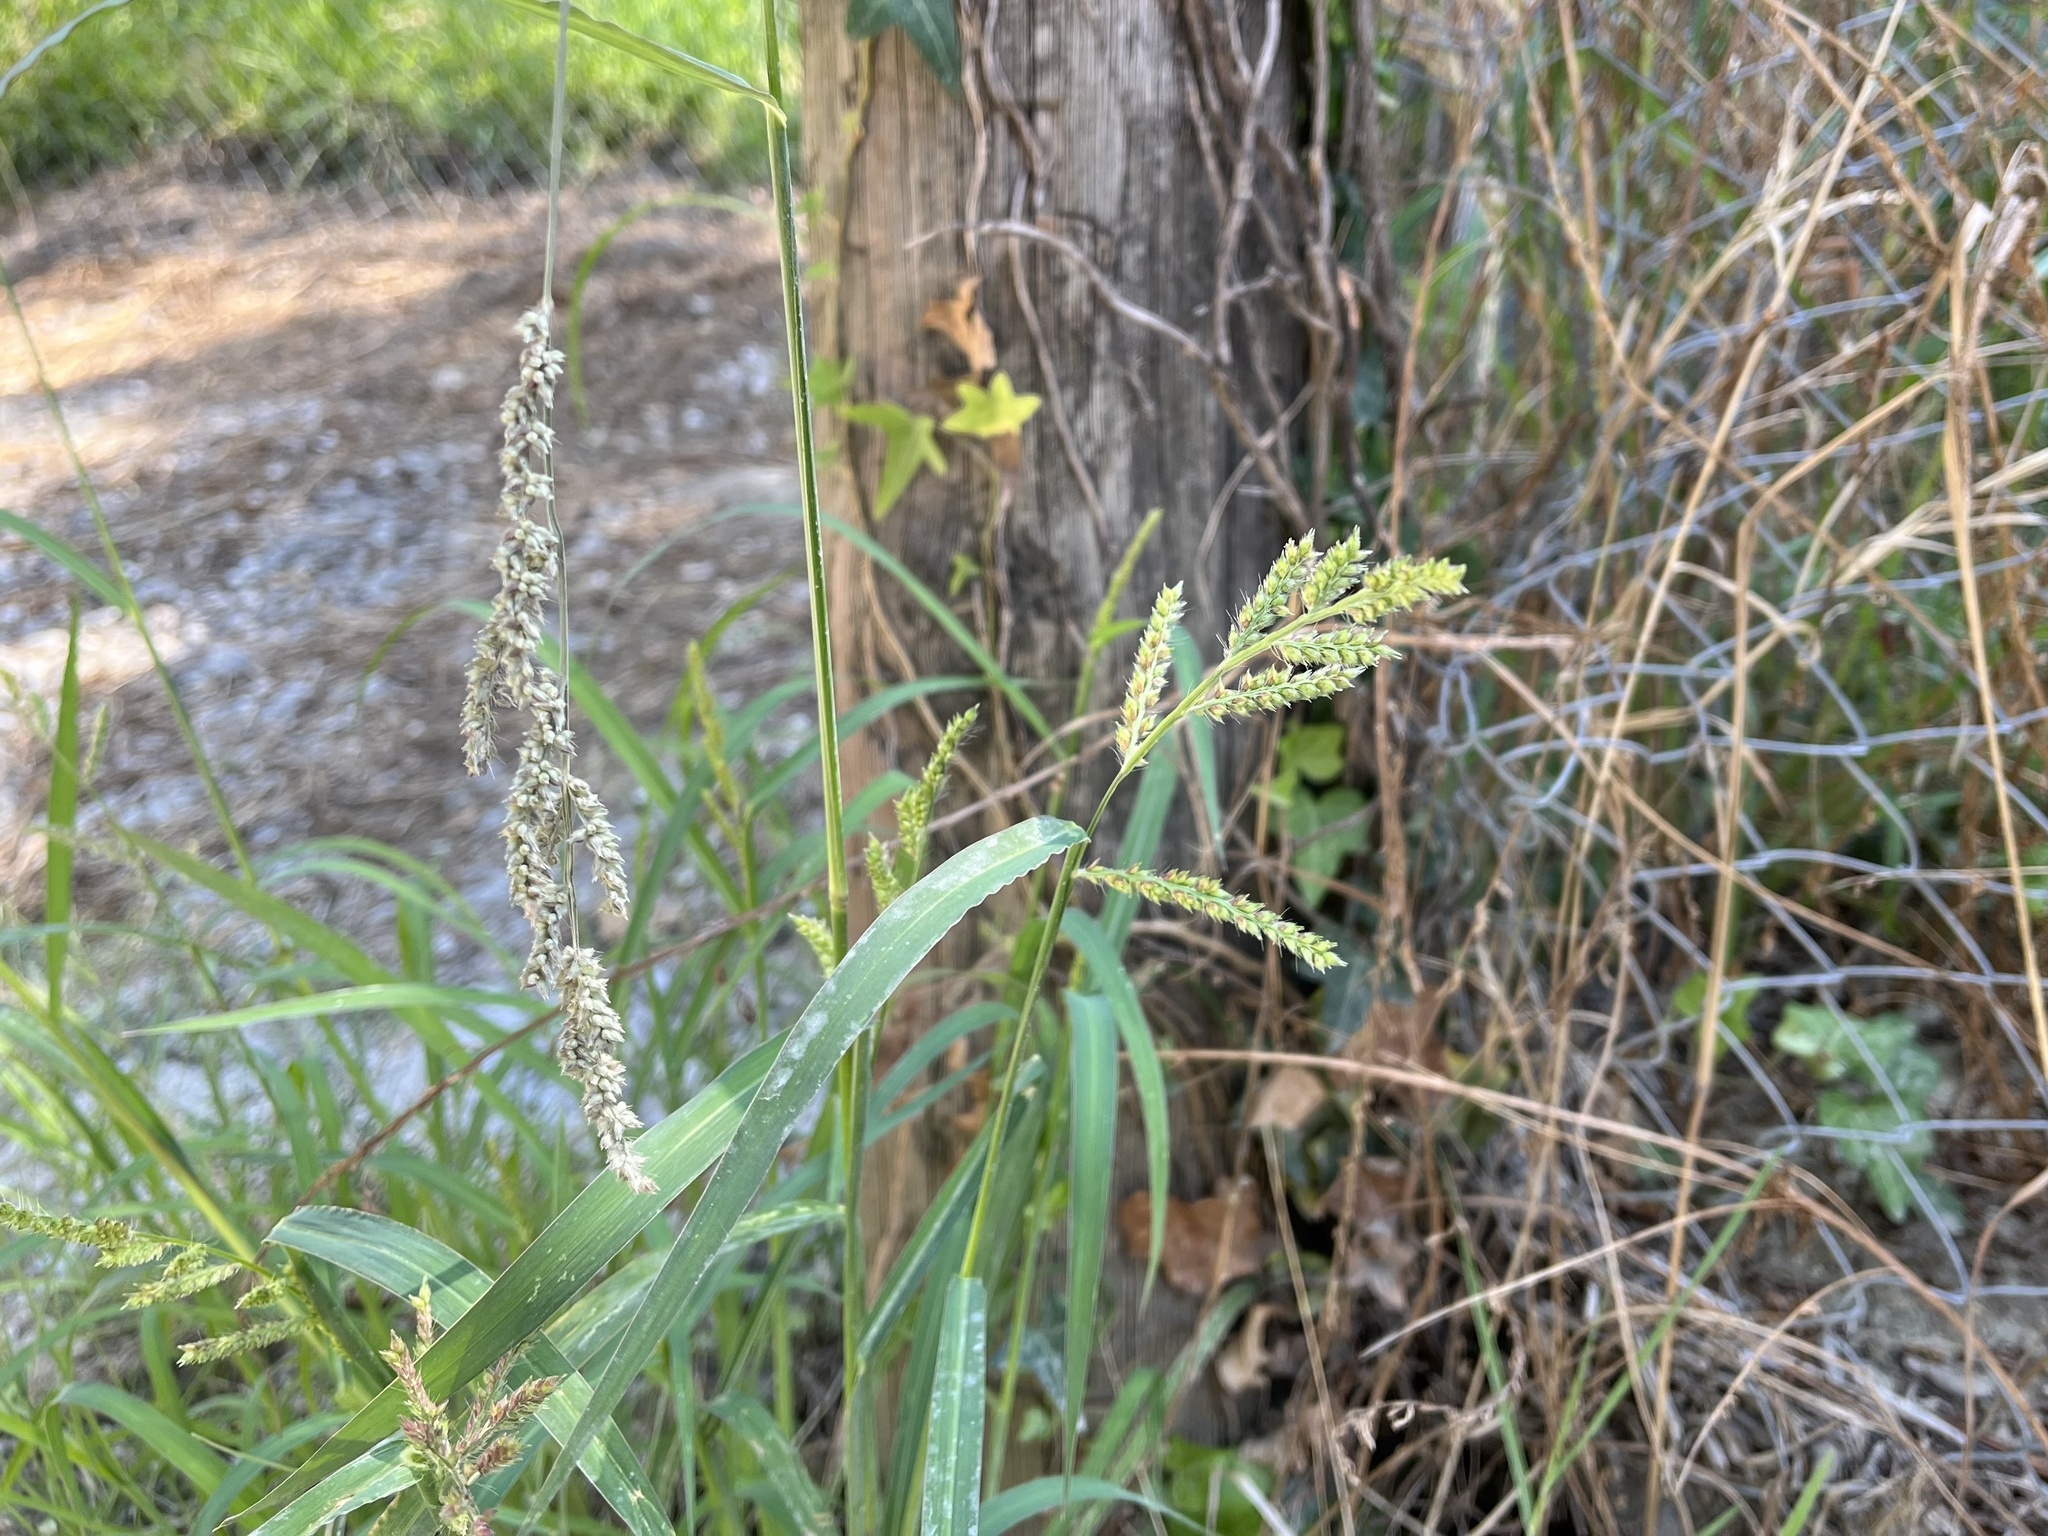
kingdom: Plantae
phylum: Tracheophyta
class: Liliopsida
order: Poales
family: Poaceae
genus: Echinochloa
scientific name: Echinochloa crus-galli
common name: Cockspur
